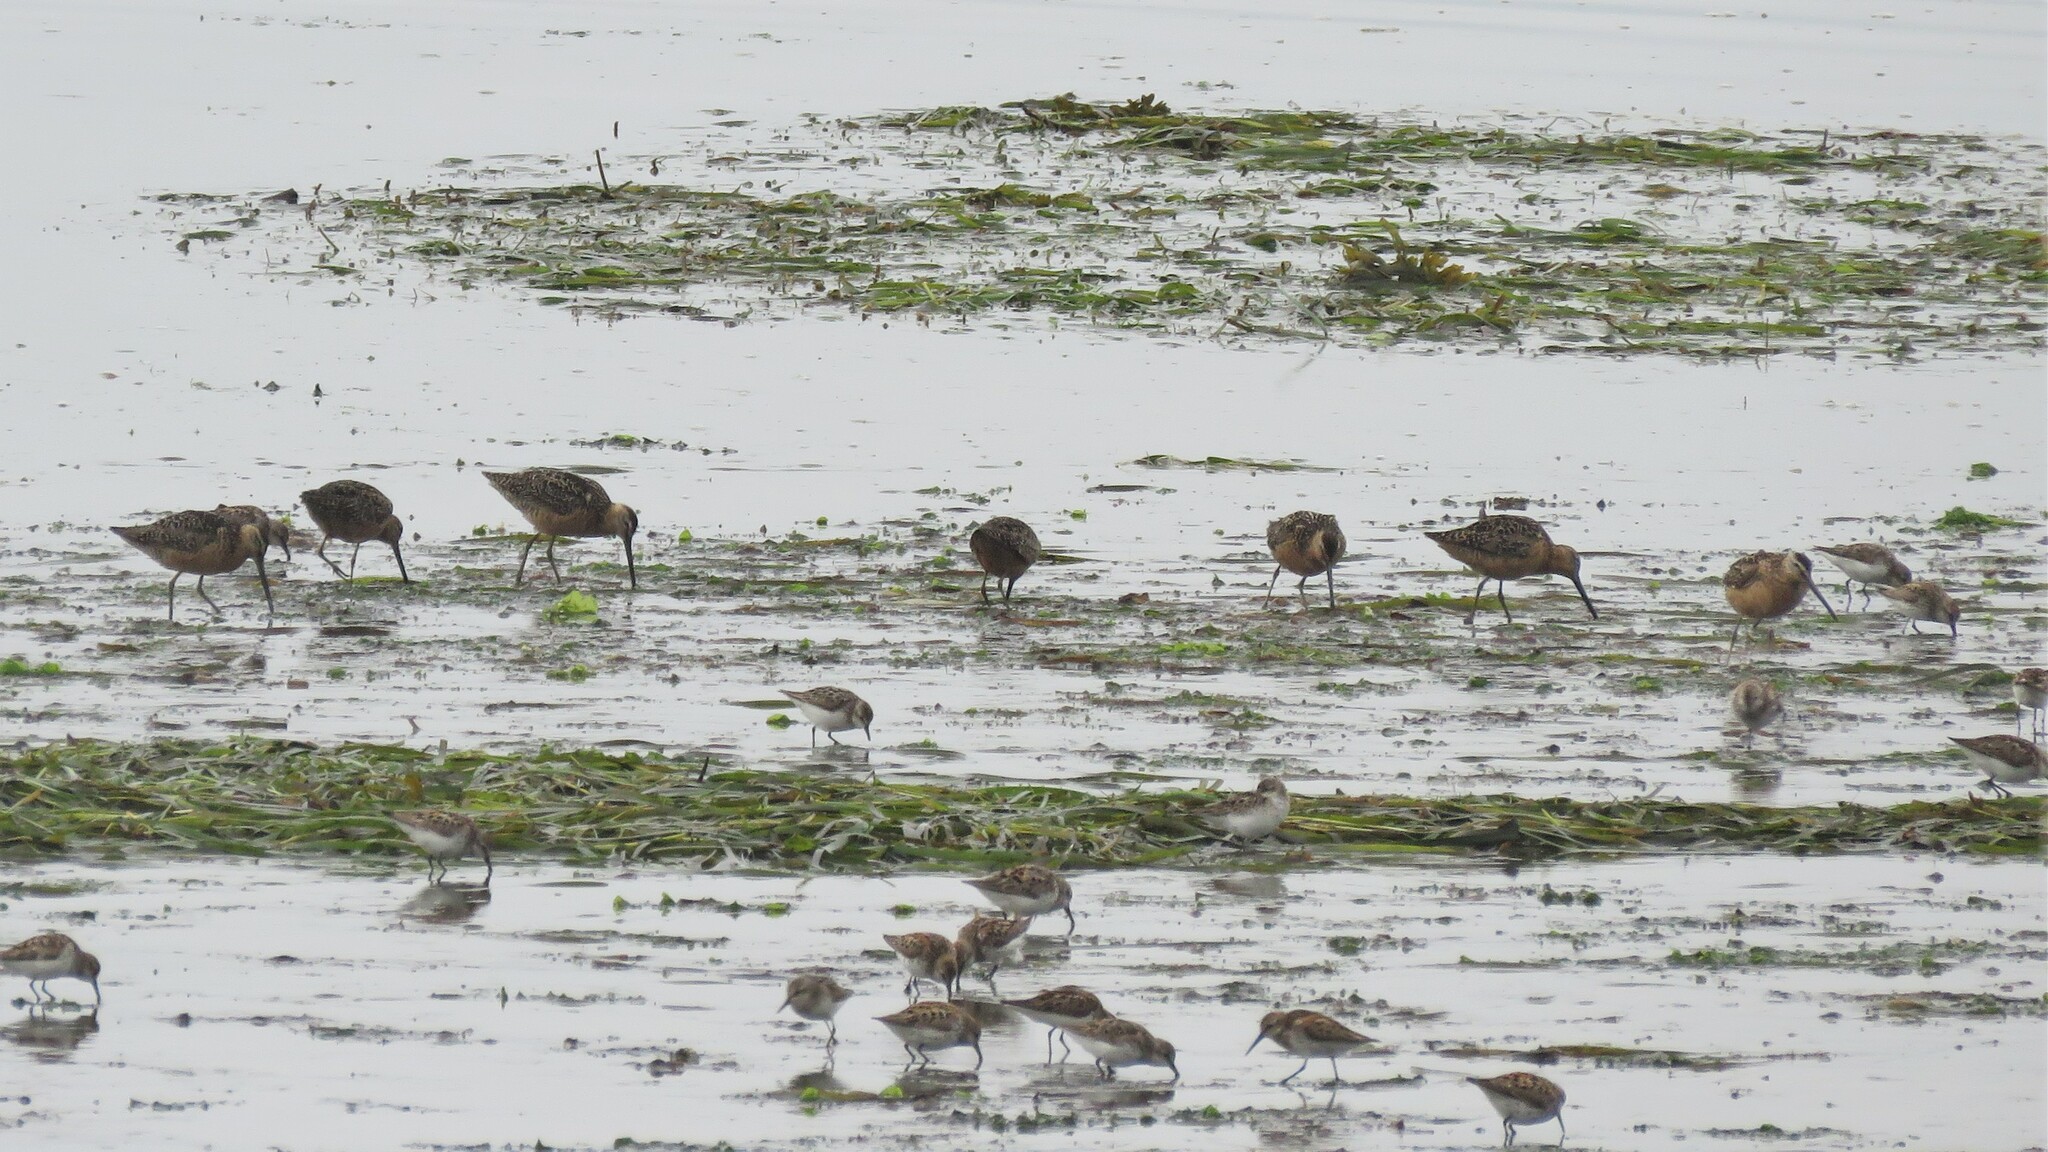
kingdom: Animalia
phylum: Chordata
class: Aves
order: Charadriiformes
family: Scolopacidae
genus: Limnodromus
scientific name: Limnodromus scolopaceus
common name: Long-billed dowitcher
